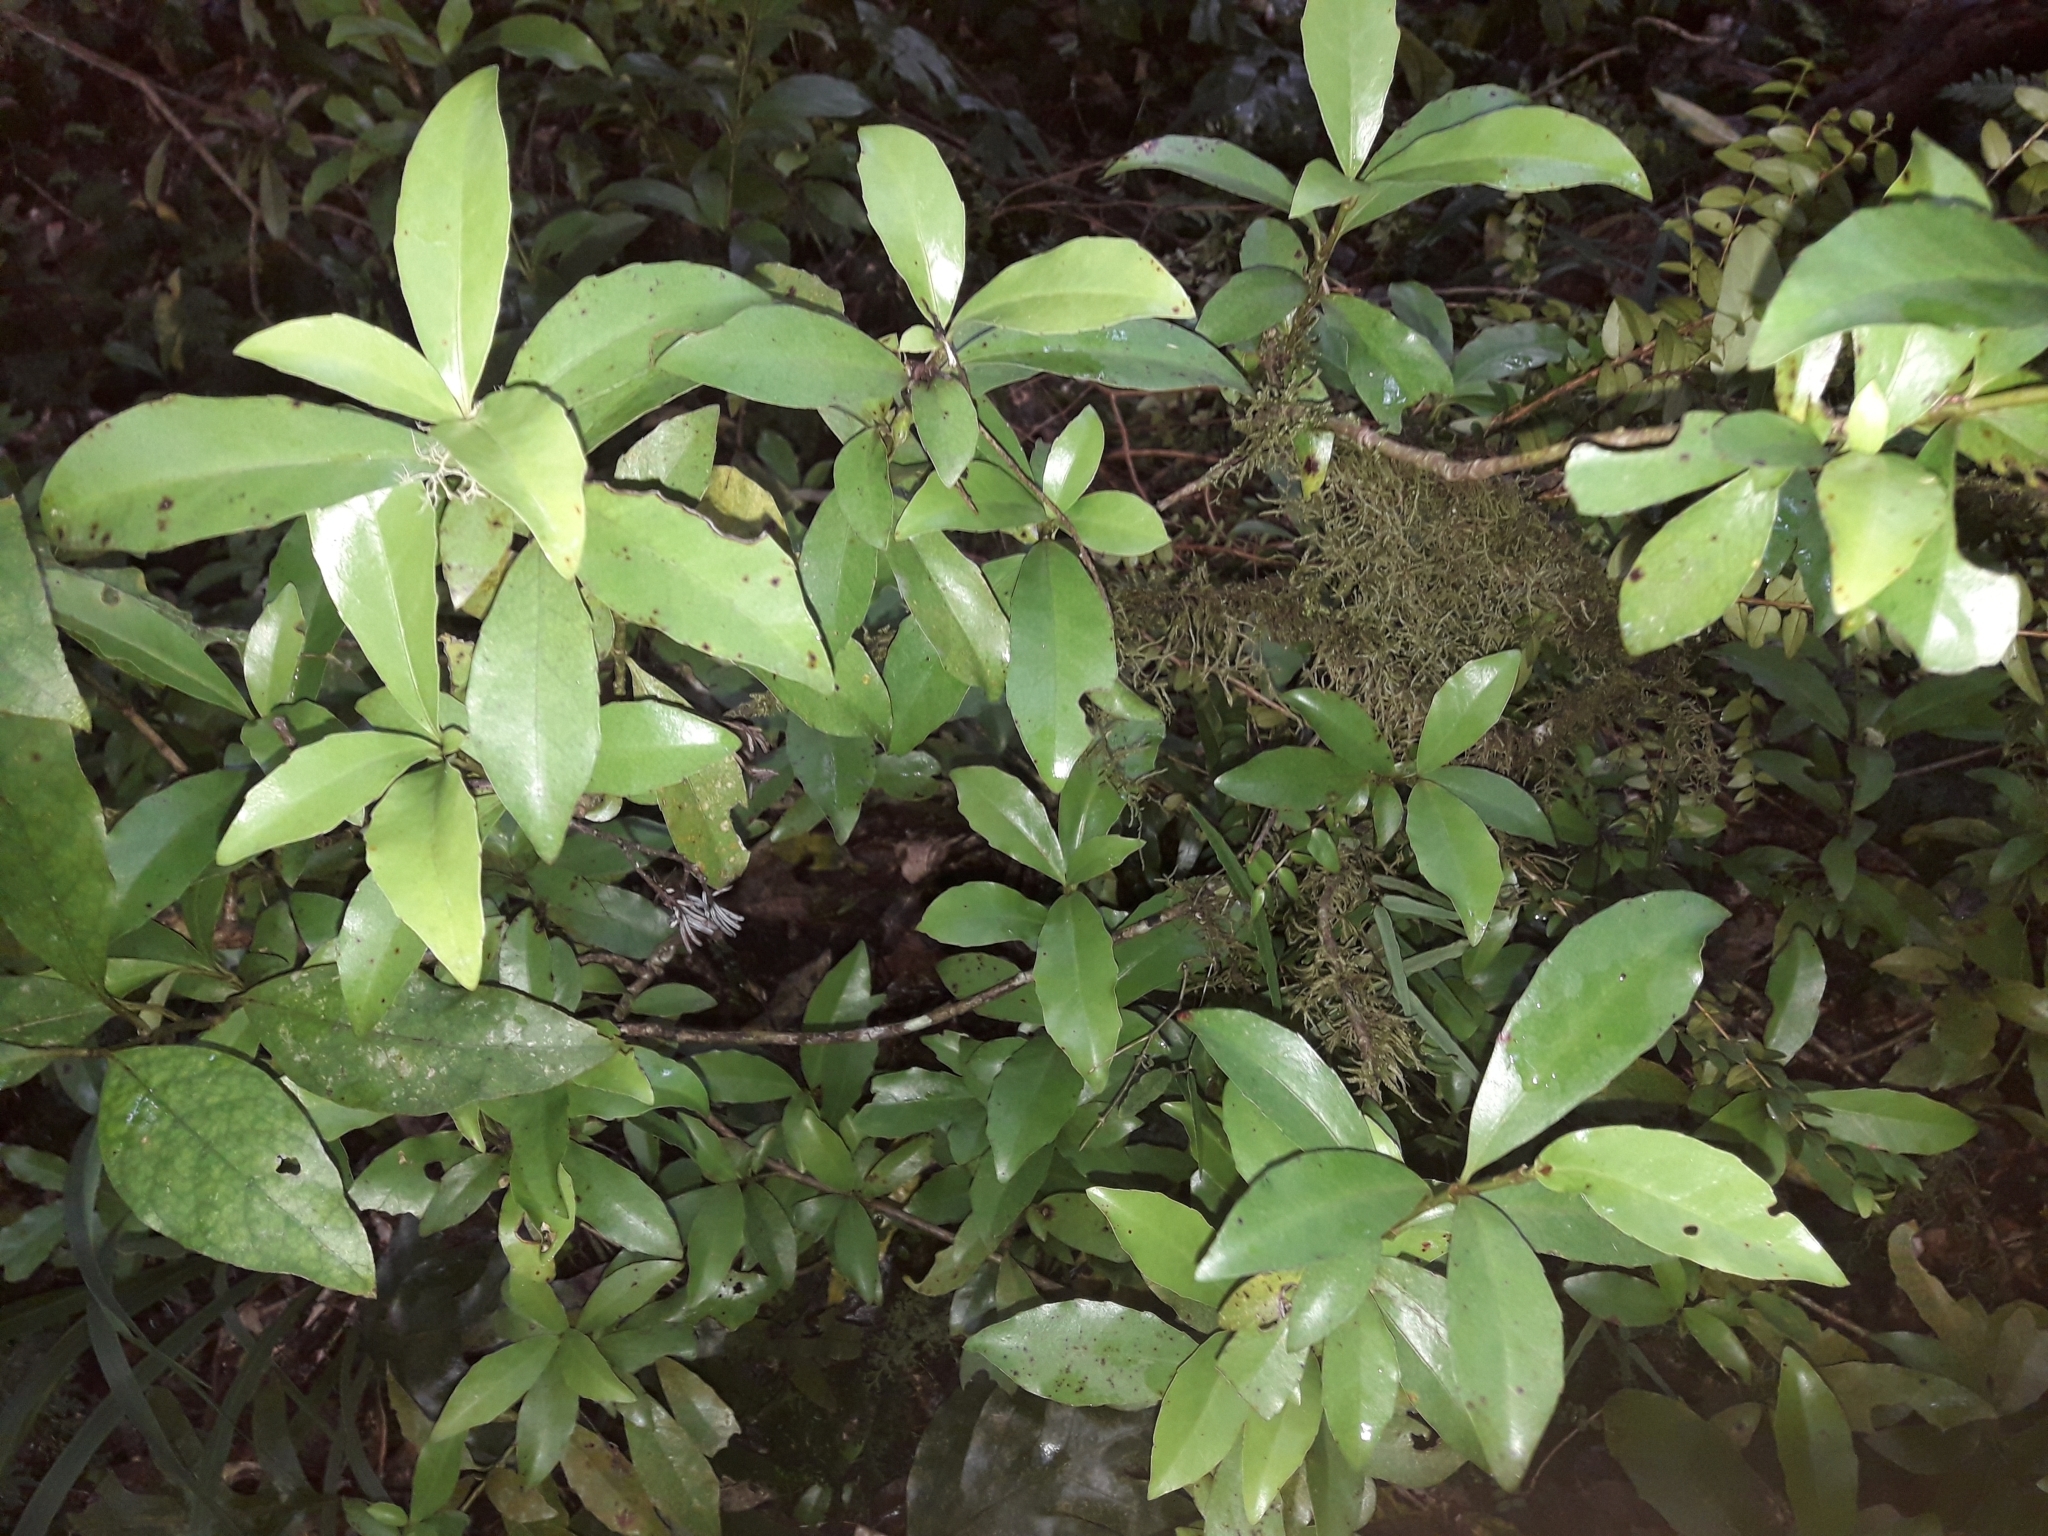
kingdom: Plantae
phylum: Tracheophyta
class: Magnoliopsida
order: Asterales
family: Alseuosmiaceae
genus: Alseuosmia
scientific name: Alseuosmia turneri
